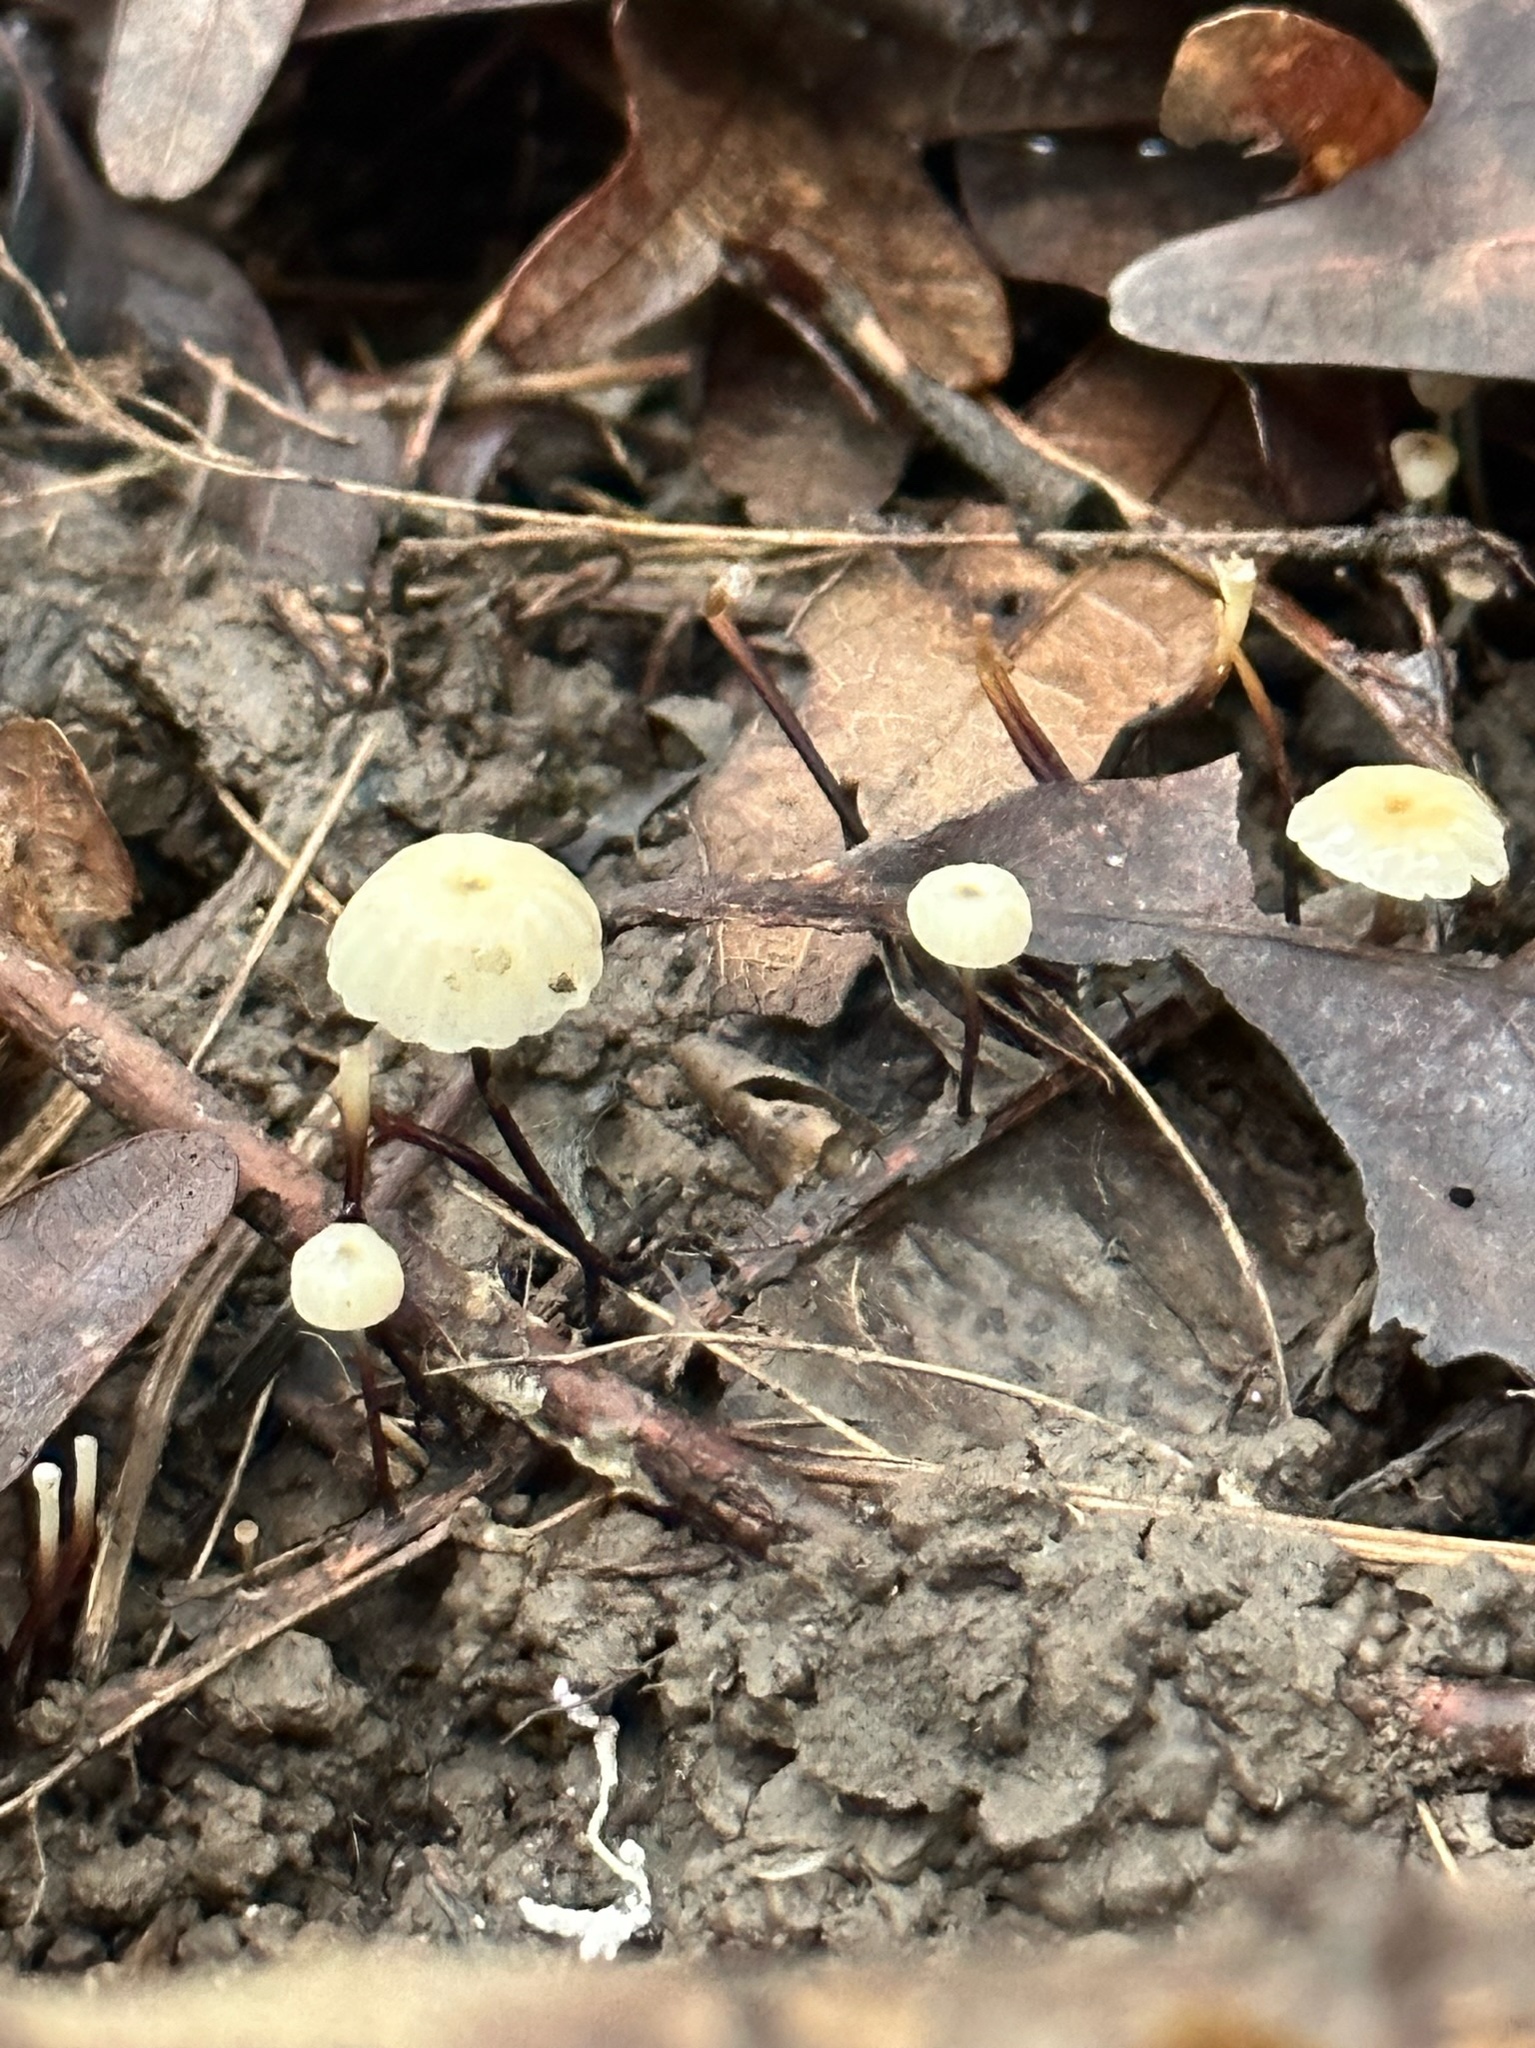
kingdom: Fungi
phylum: Basidiomycota
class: Agaricomycetes
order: Agaricales
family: Marasmiaceae
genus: Marasmius
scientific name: Marasmius capillaris
